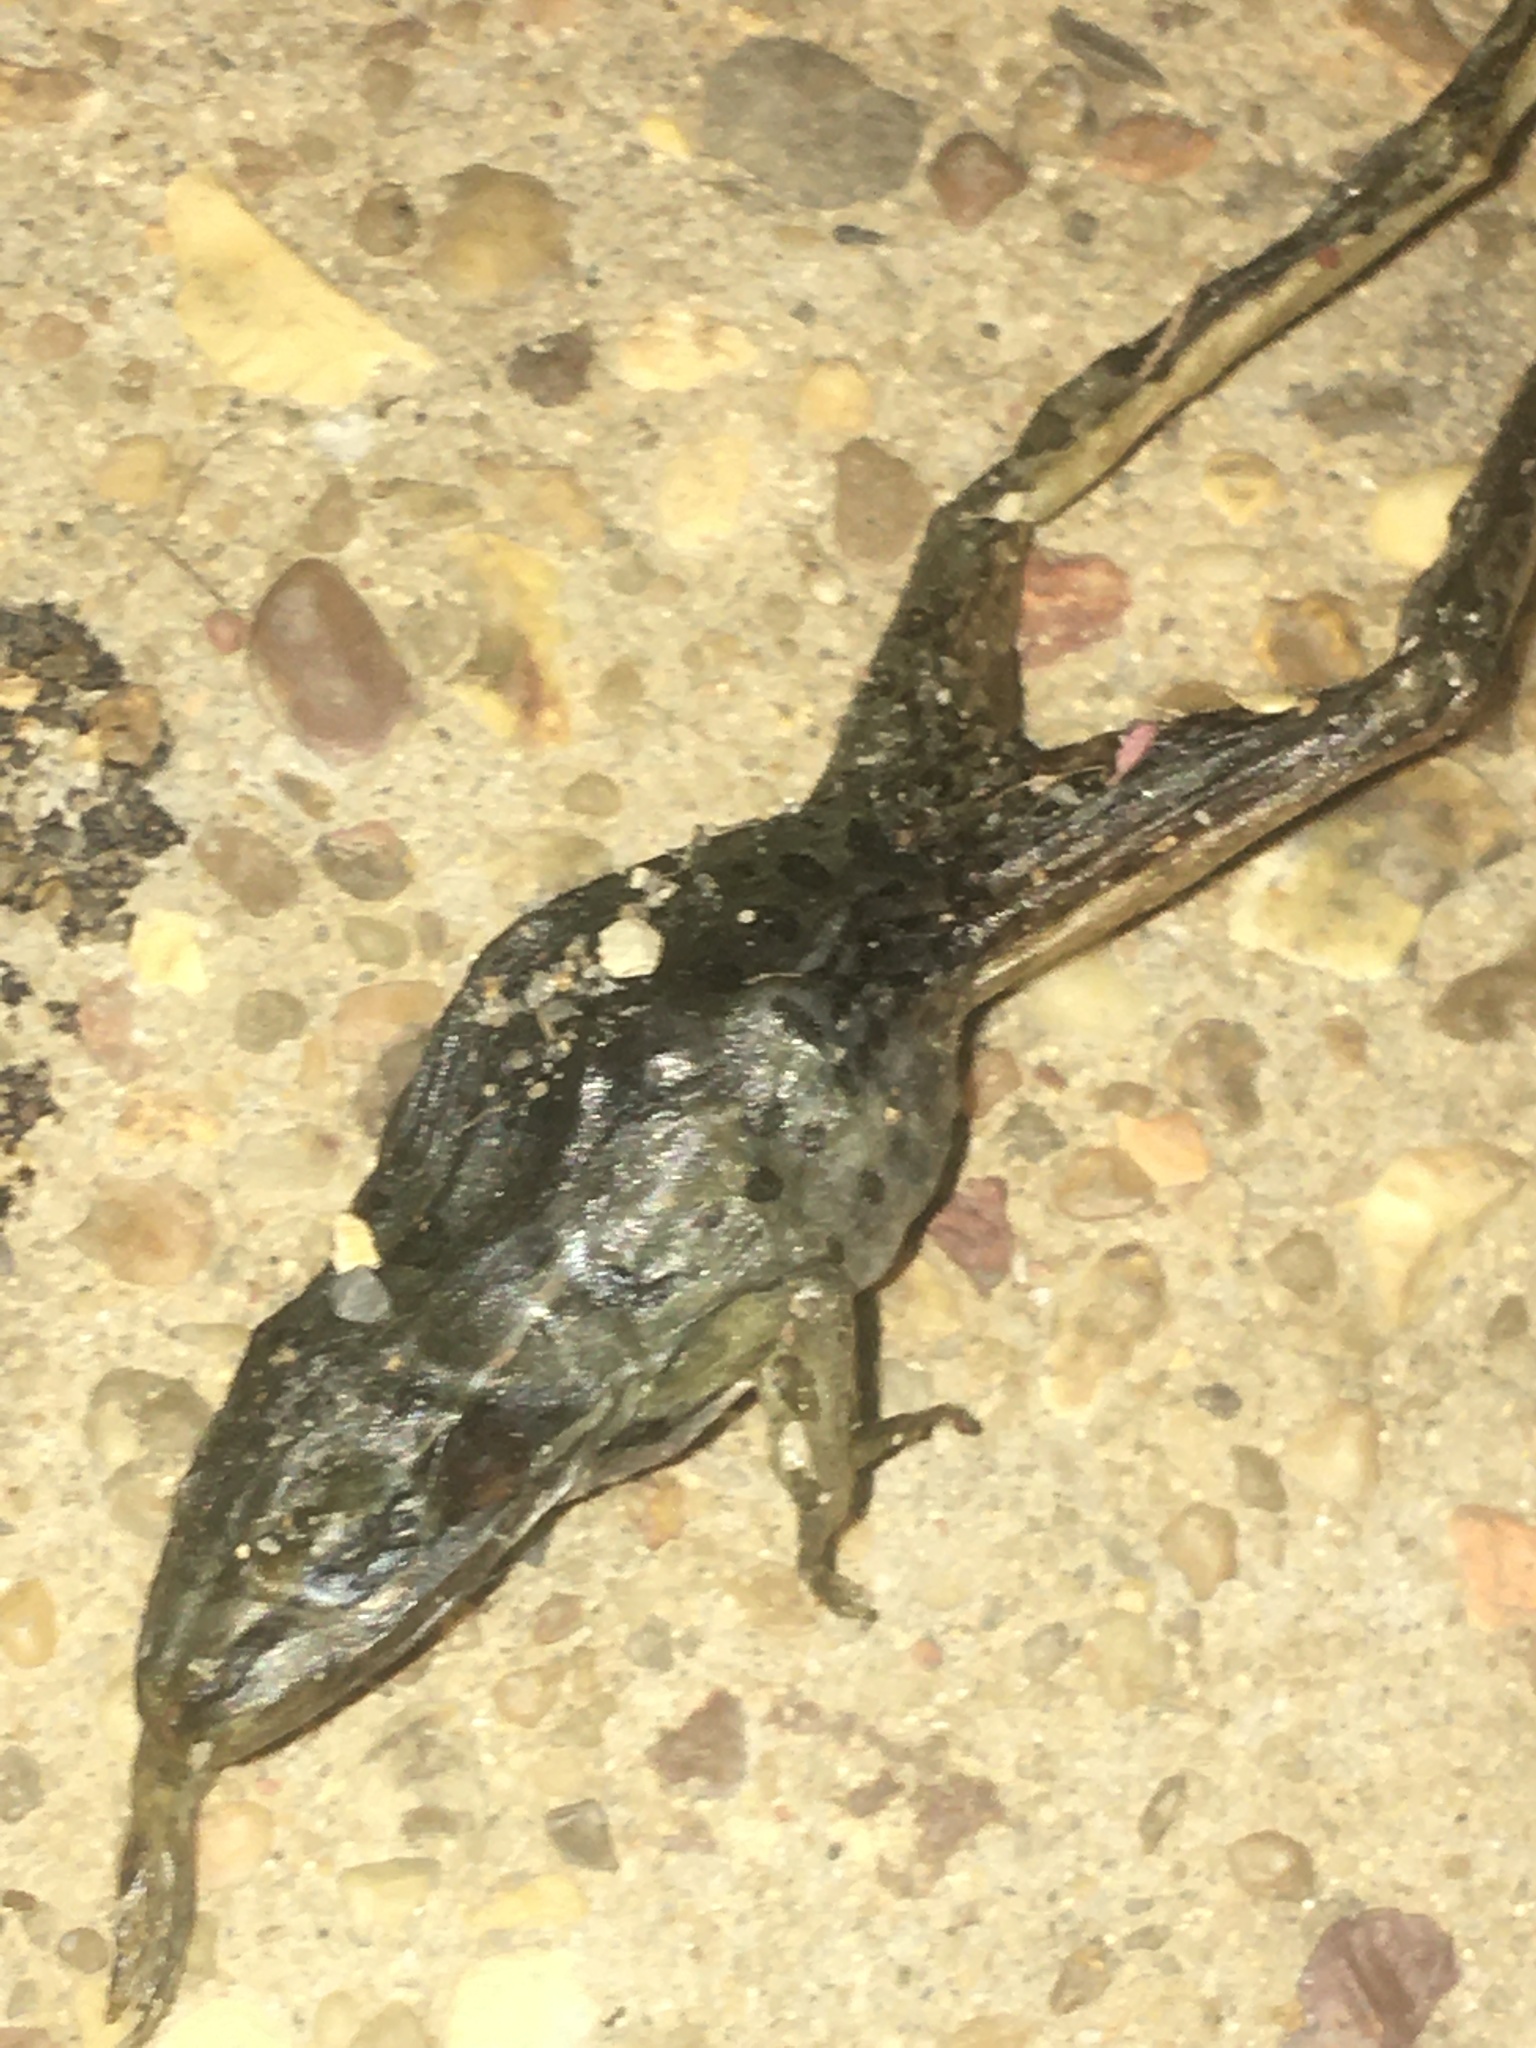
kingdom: Animalia
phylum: Chordata
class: Amphibia
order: Anura
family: Ranidae
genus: Lithobates
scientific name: Lithobates sphenocephalus
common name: Southern leopard frog
